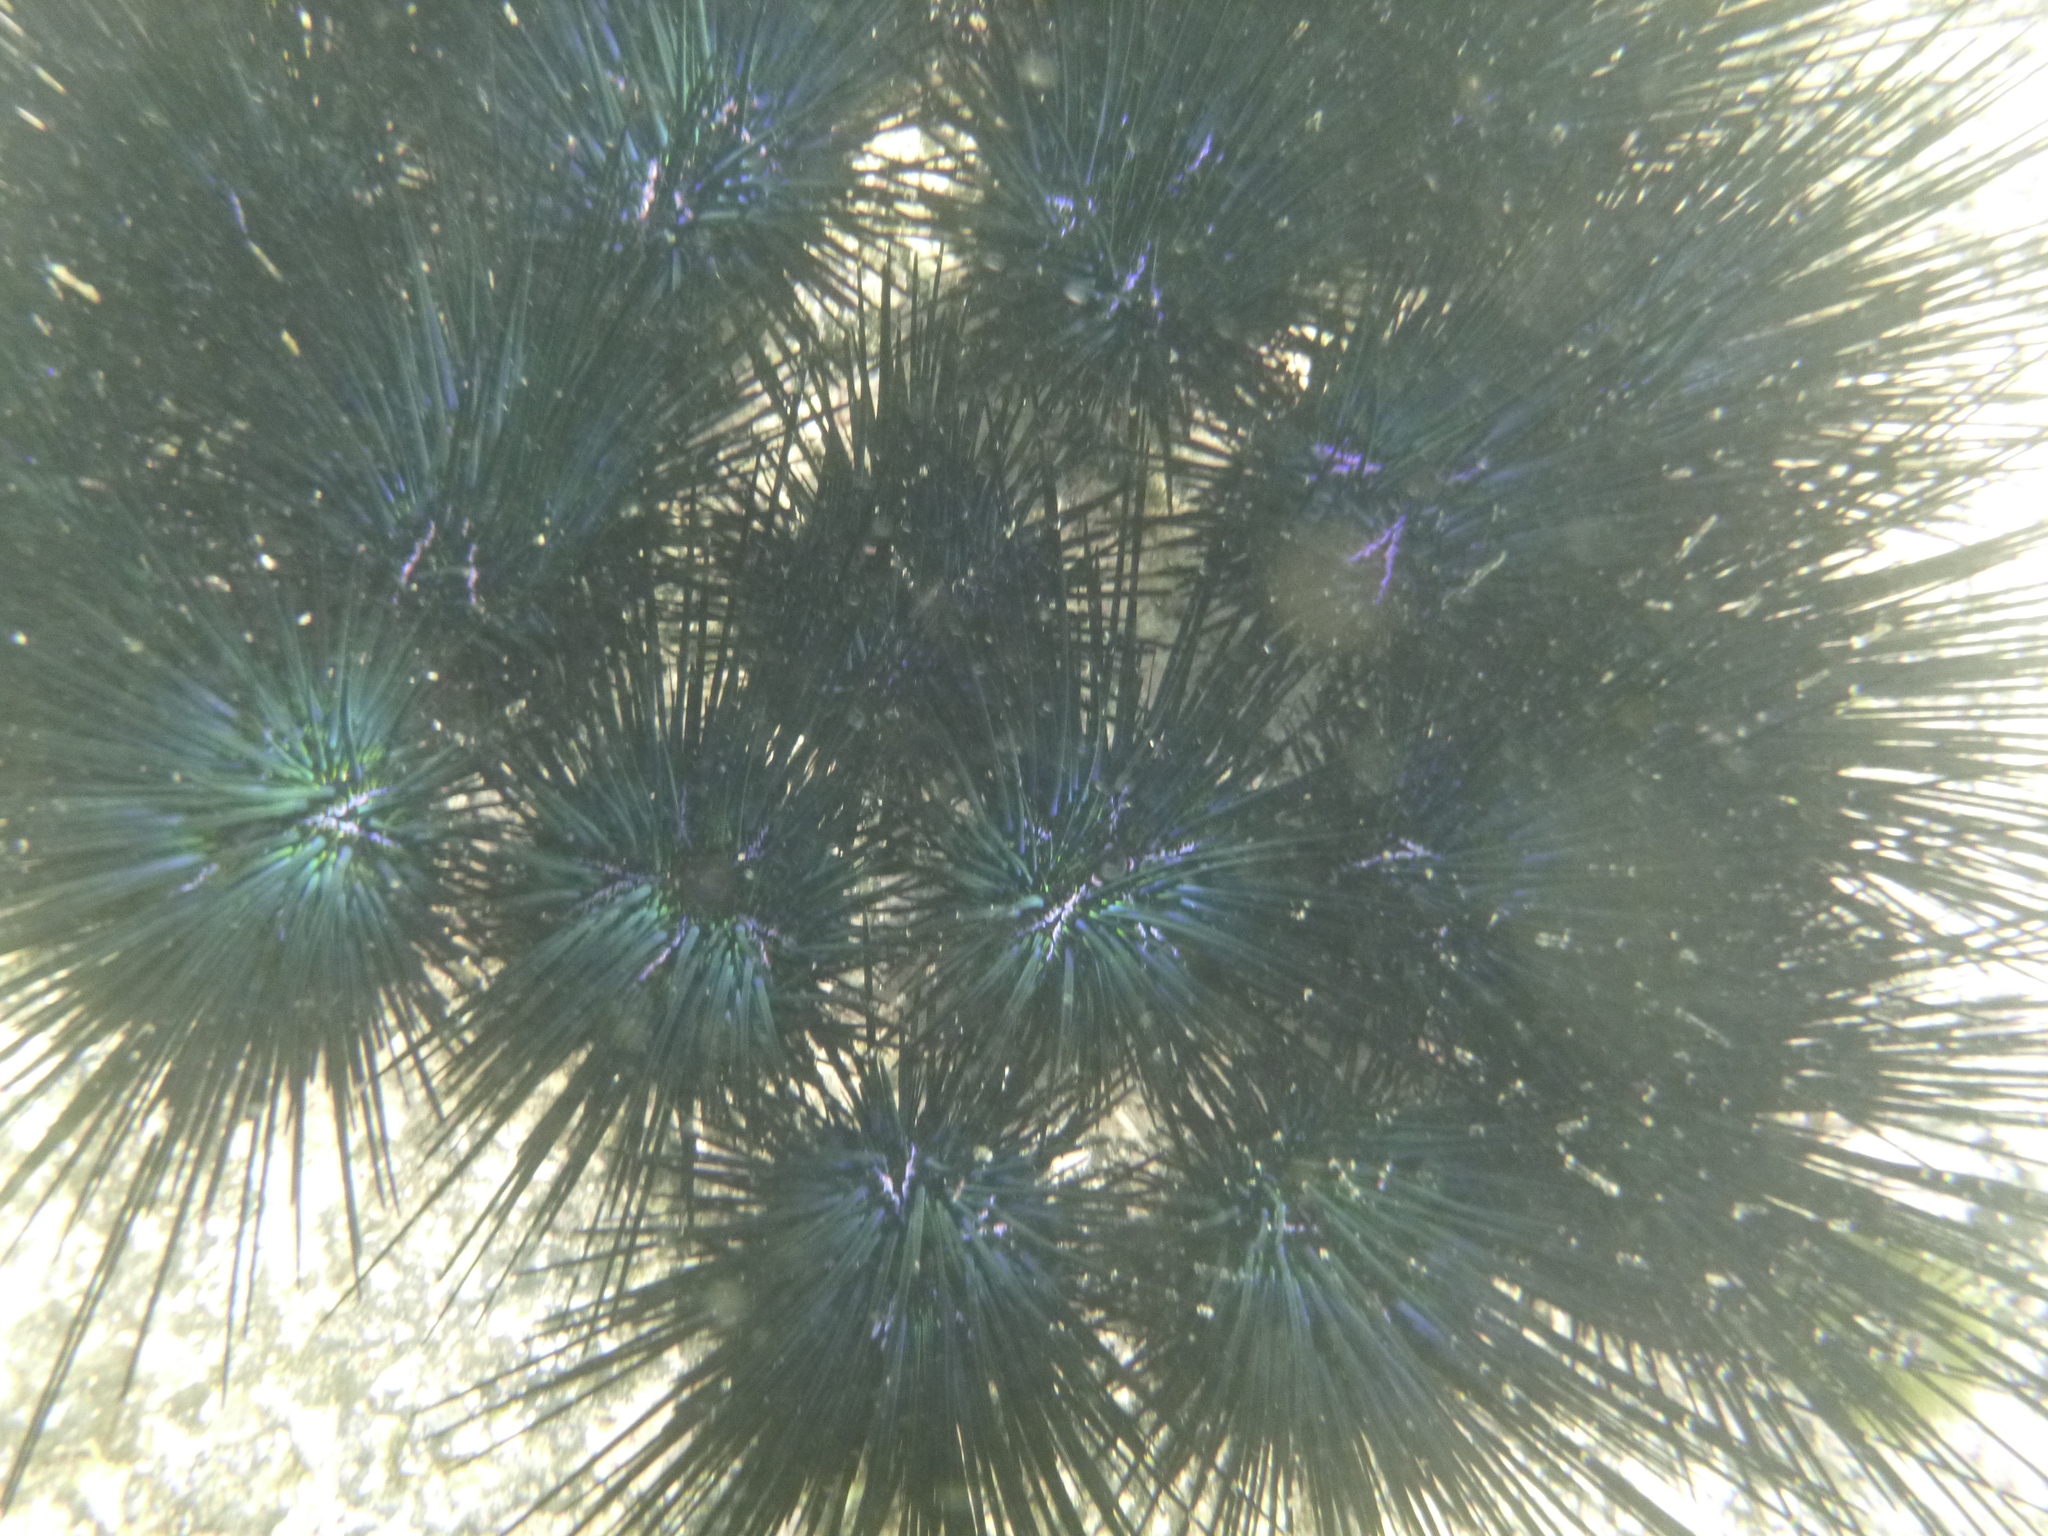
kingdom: Animalia
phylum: Echinodermata
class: Echinoidea
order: Diadematoida
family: Diadematidae
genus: Diadema
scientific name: Diadema mexicanum
